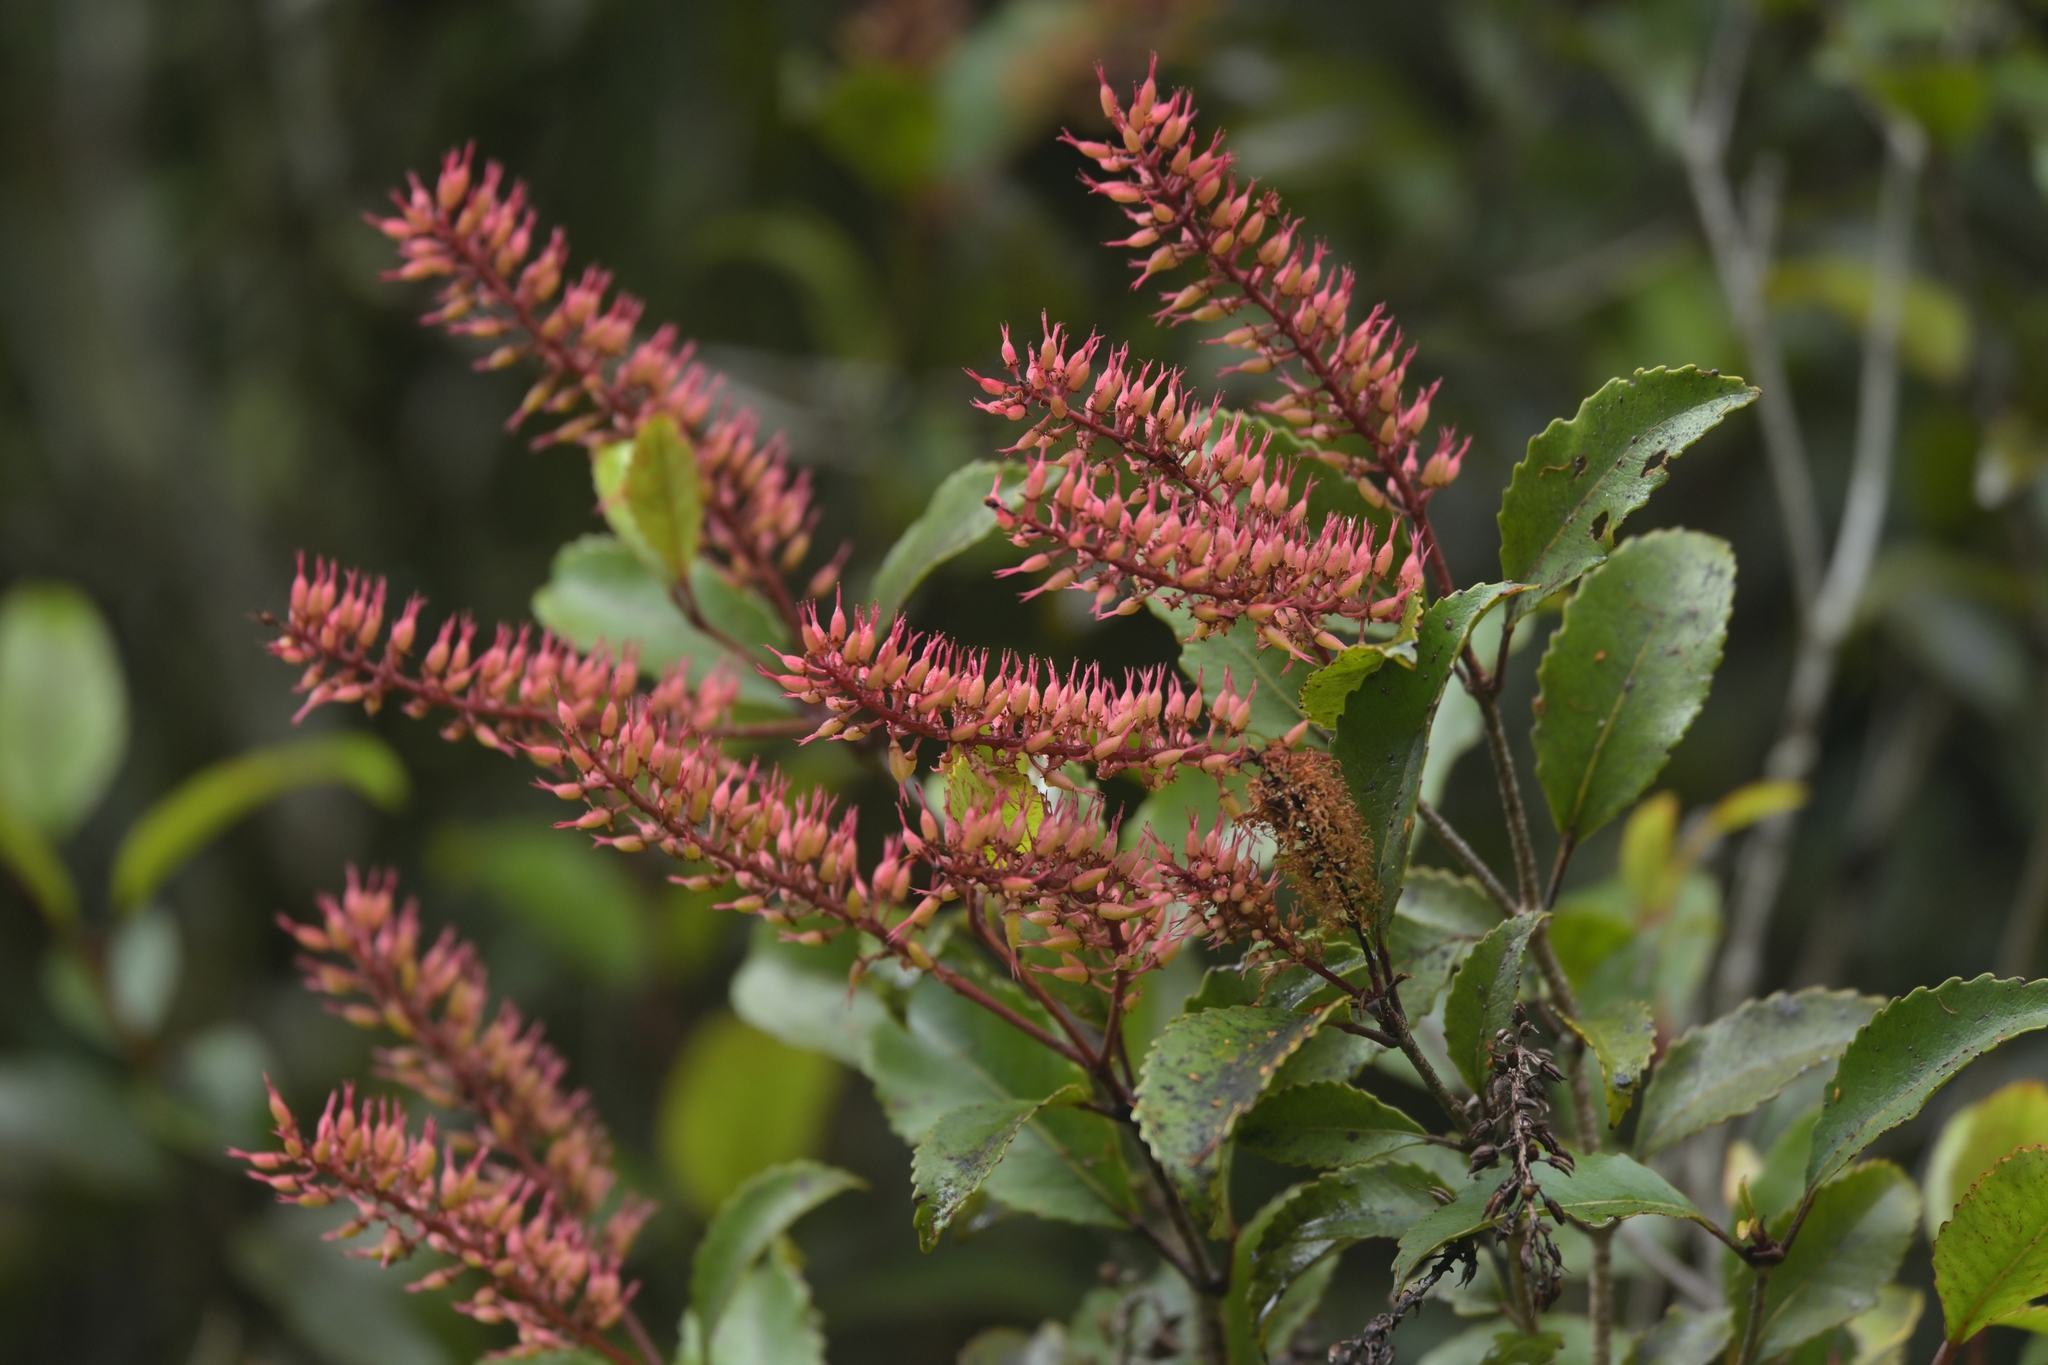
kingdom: Plantae
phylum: Tracheophyta
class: Magnoliopsida
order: Oxalidales
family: Cunoniaceae
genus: Pterophylla
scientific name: Pterophylla racemosa
